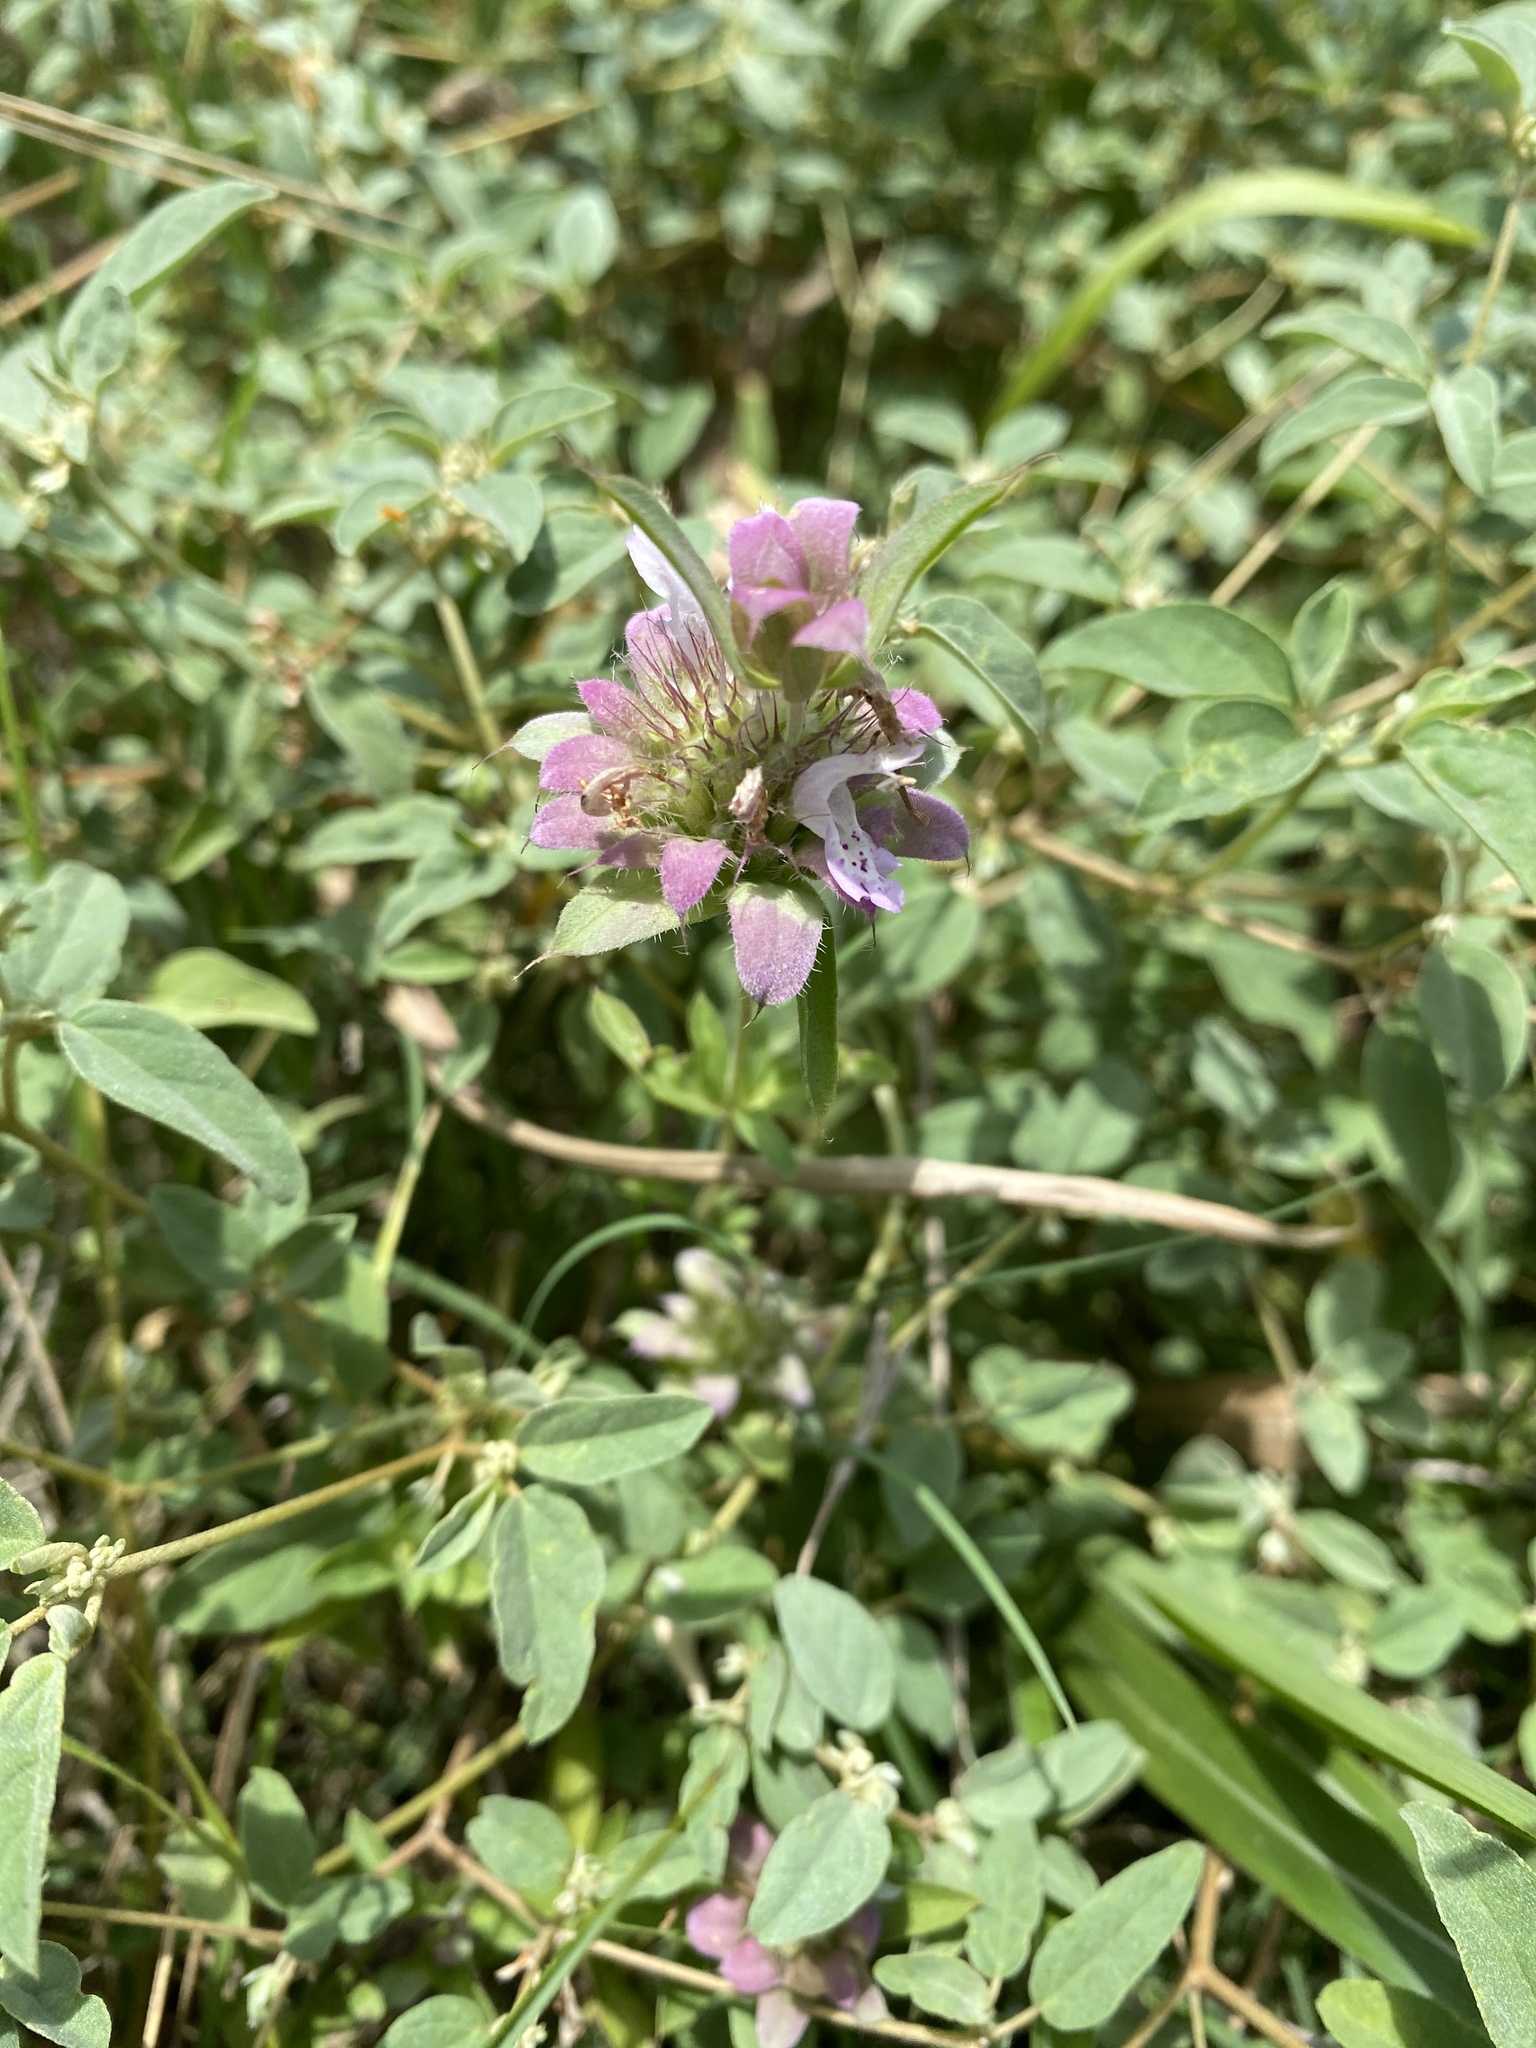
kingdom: Plantae
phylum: Tracheophyta
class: Magnoliopsida
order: Lamiales
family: Lamiaceae
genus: Monarda
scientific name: Monarda citriodora
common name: Lemon beebalm
